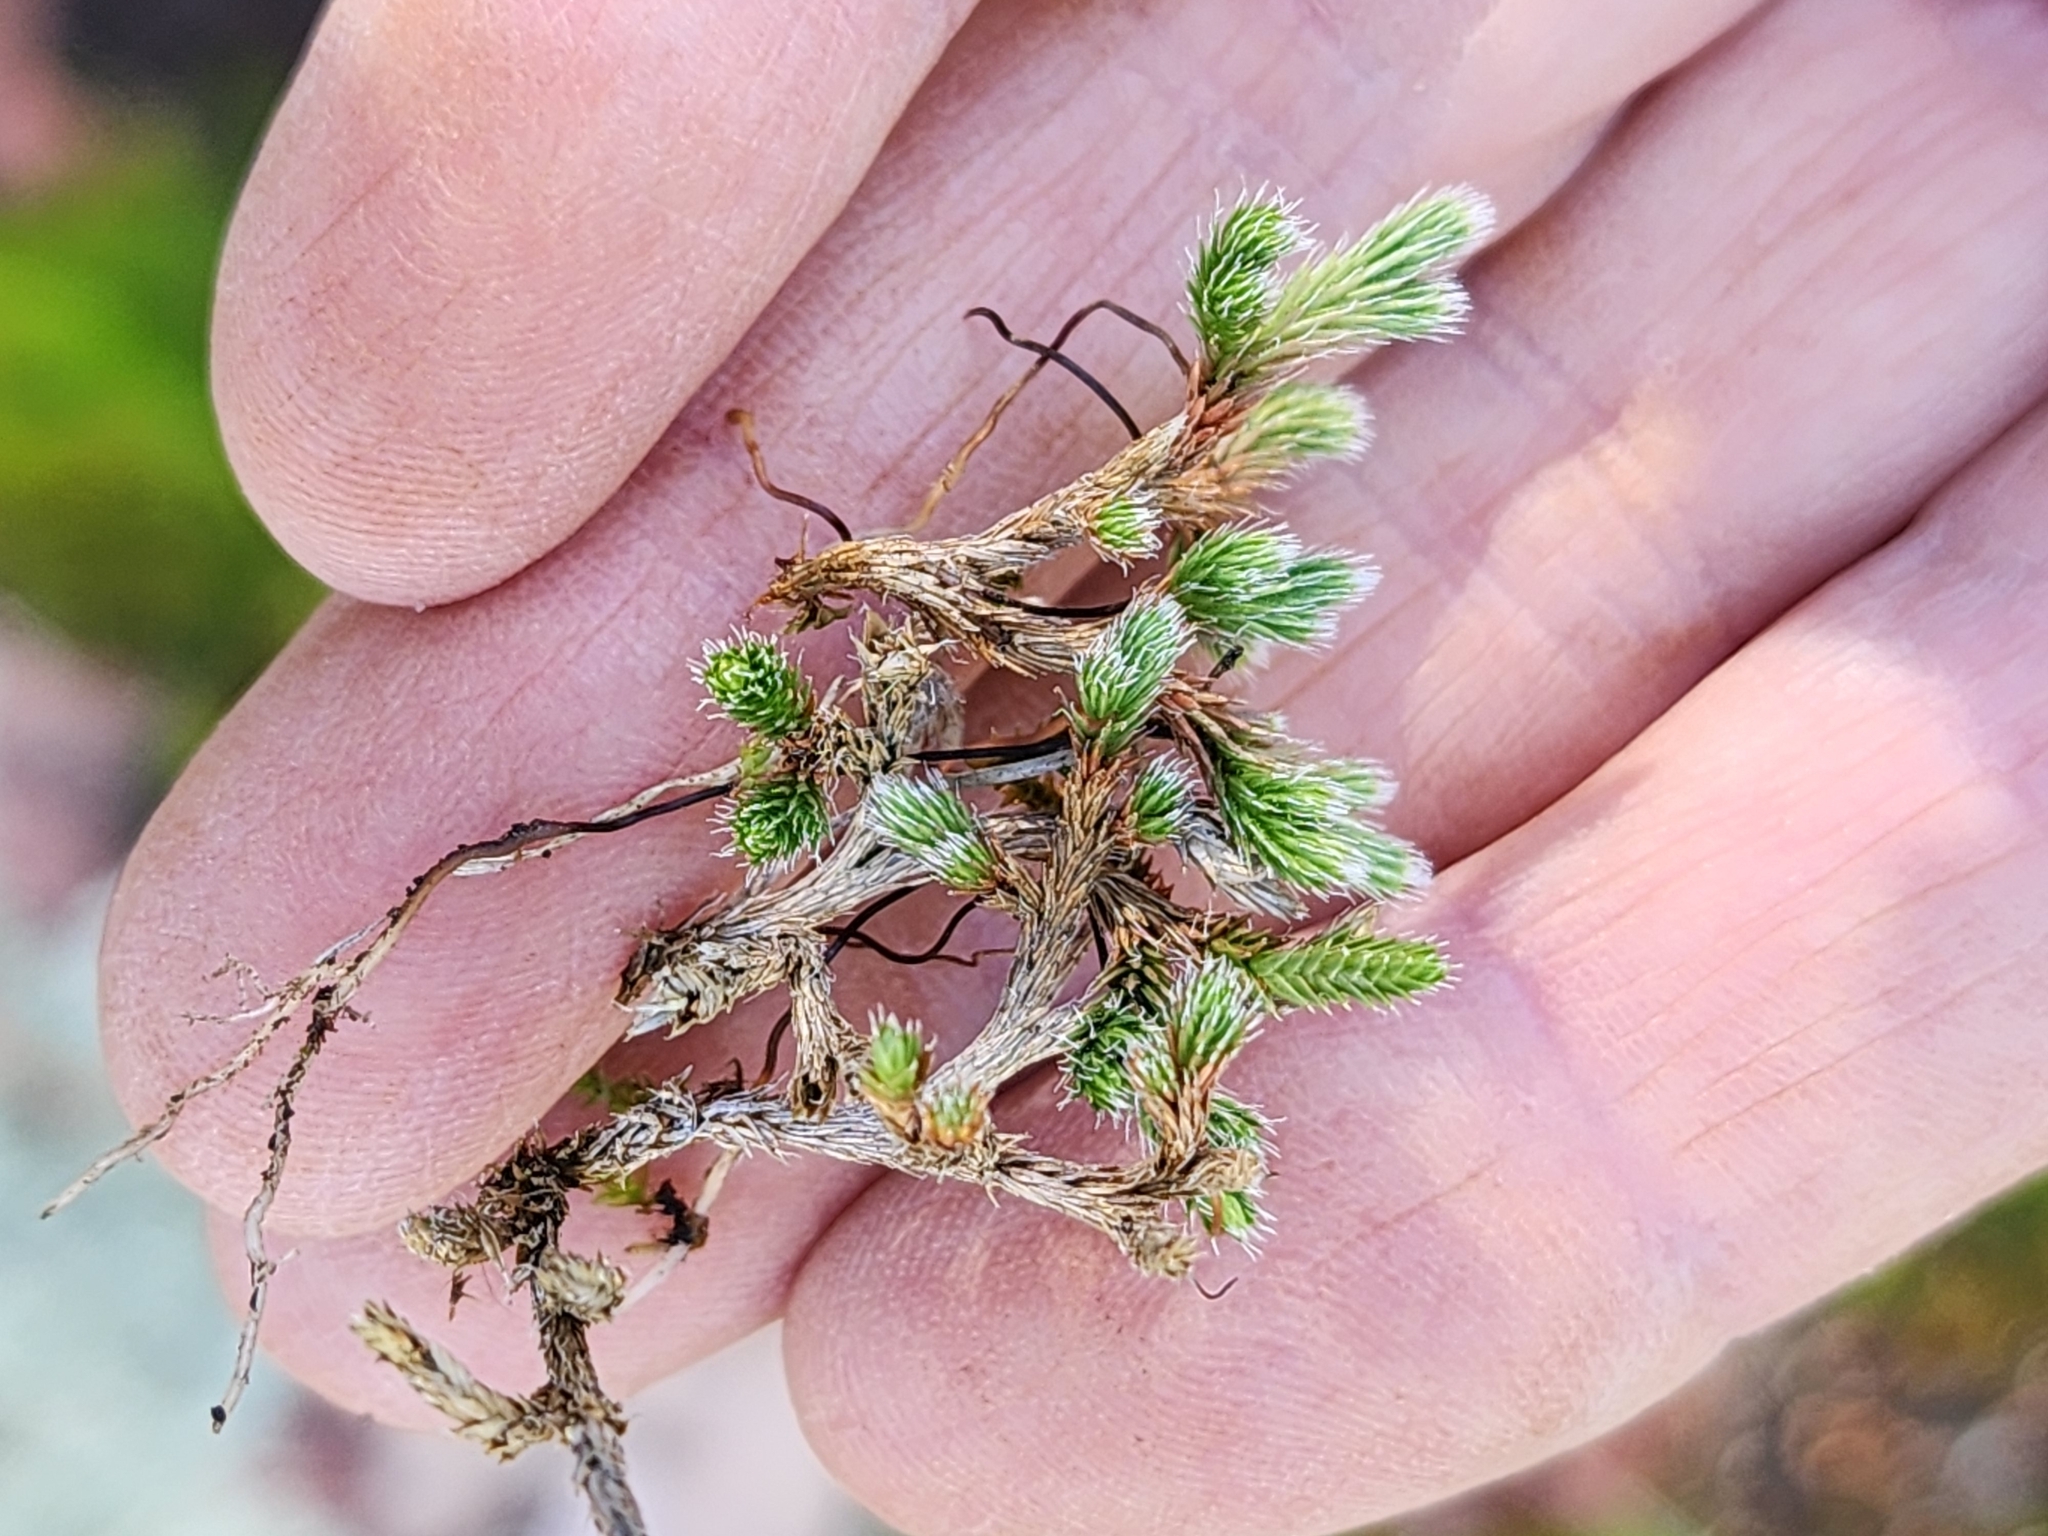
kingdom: Plantae
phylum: Tracheophyta
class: Lycopodiopsida
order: Selaginellales
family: Selaginellaceae
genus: Selaginella
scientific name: Selaginella rupestris
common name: Dwarf spikemoss
